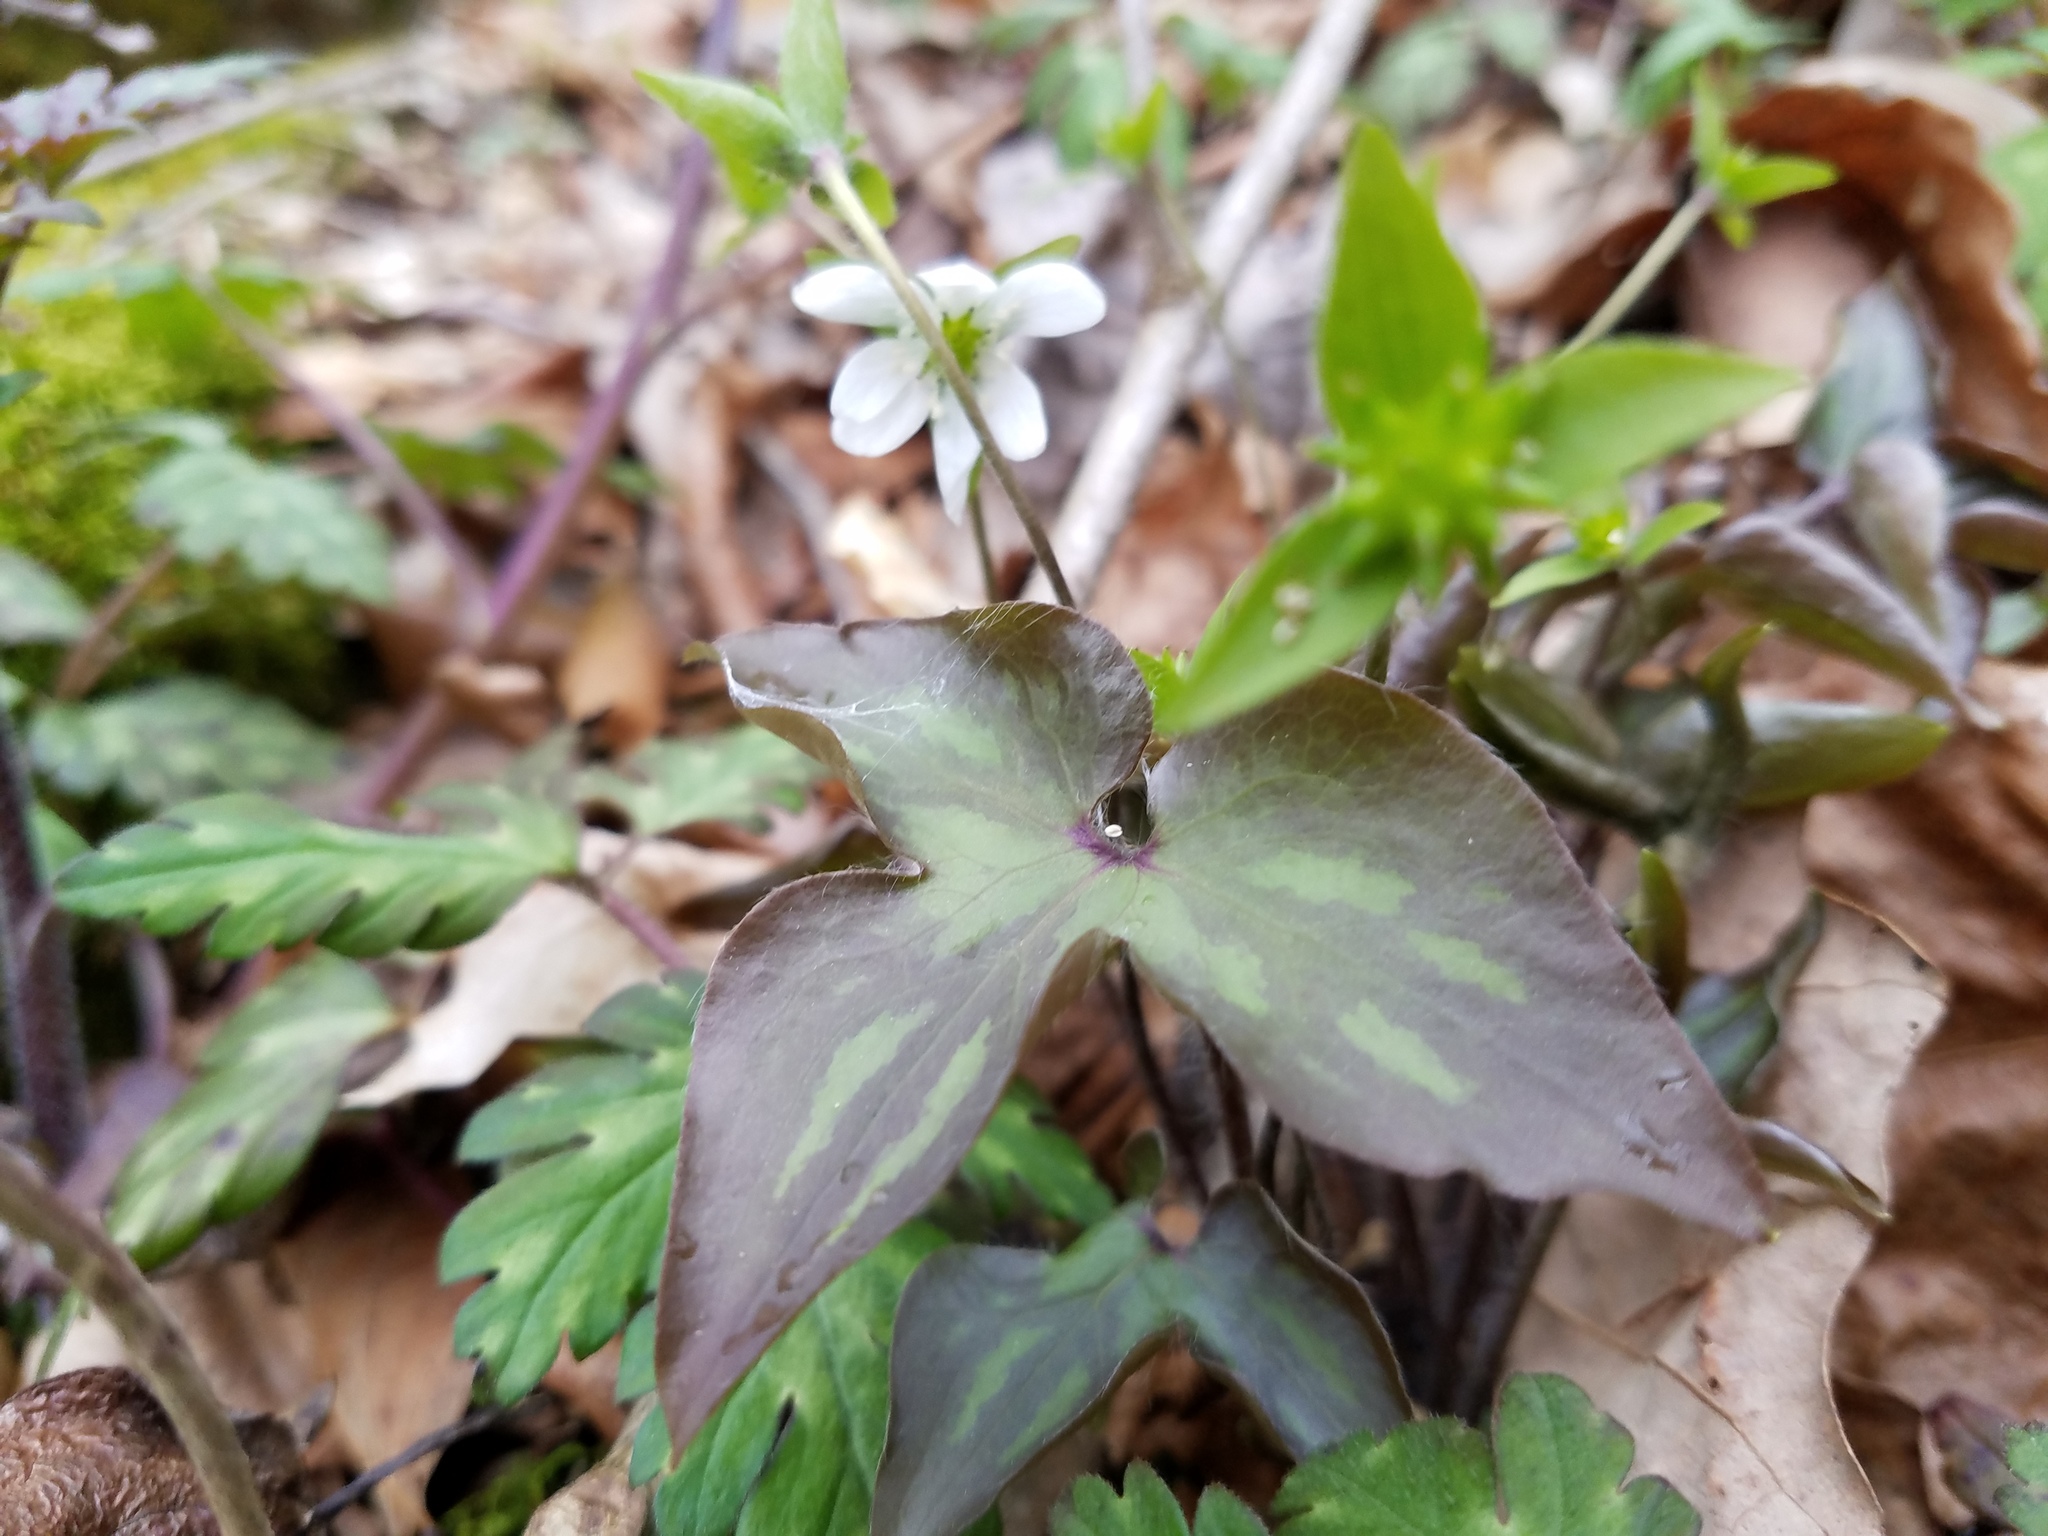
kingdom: Plantae
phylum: Tracheophyta
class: Magnoliopsida
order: Ranunculales
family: Ranunculaceae
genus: Hepatica
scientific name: Hepatica acutiloba
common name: Sharp-lobed hepatica
